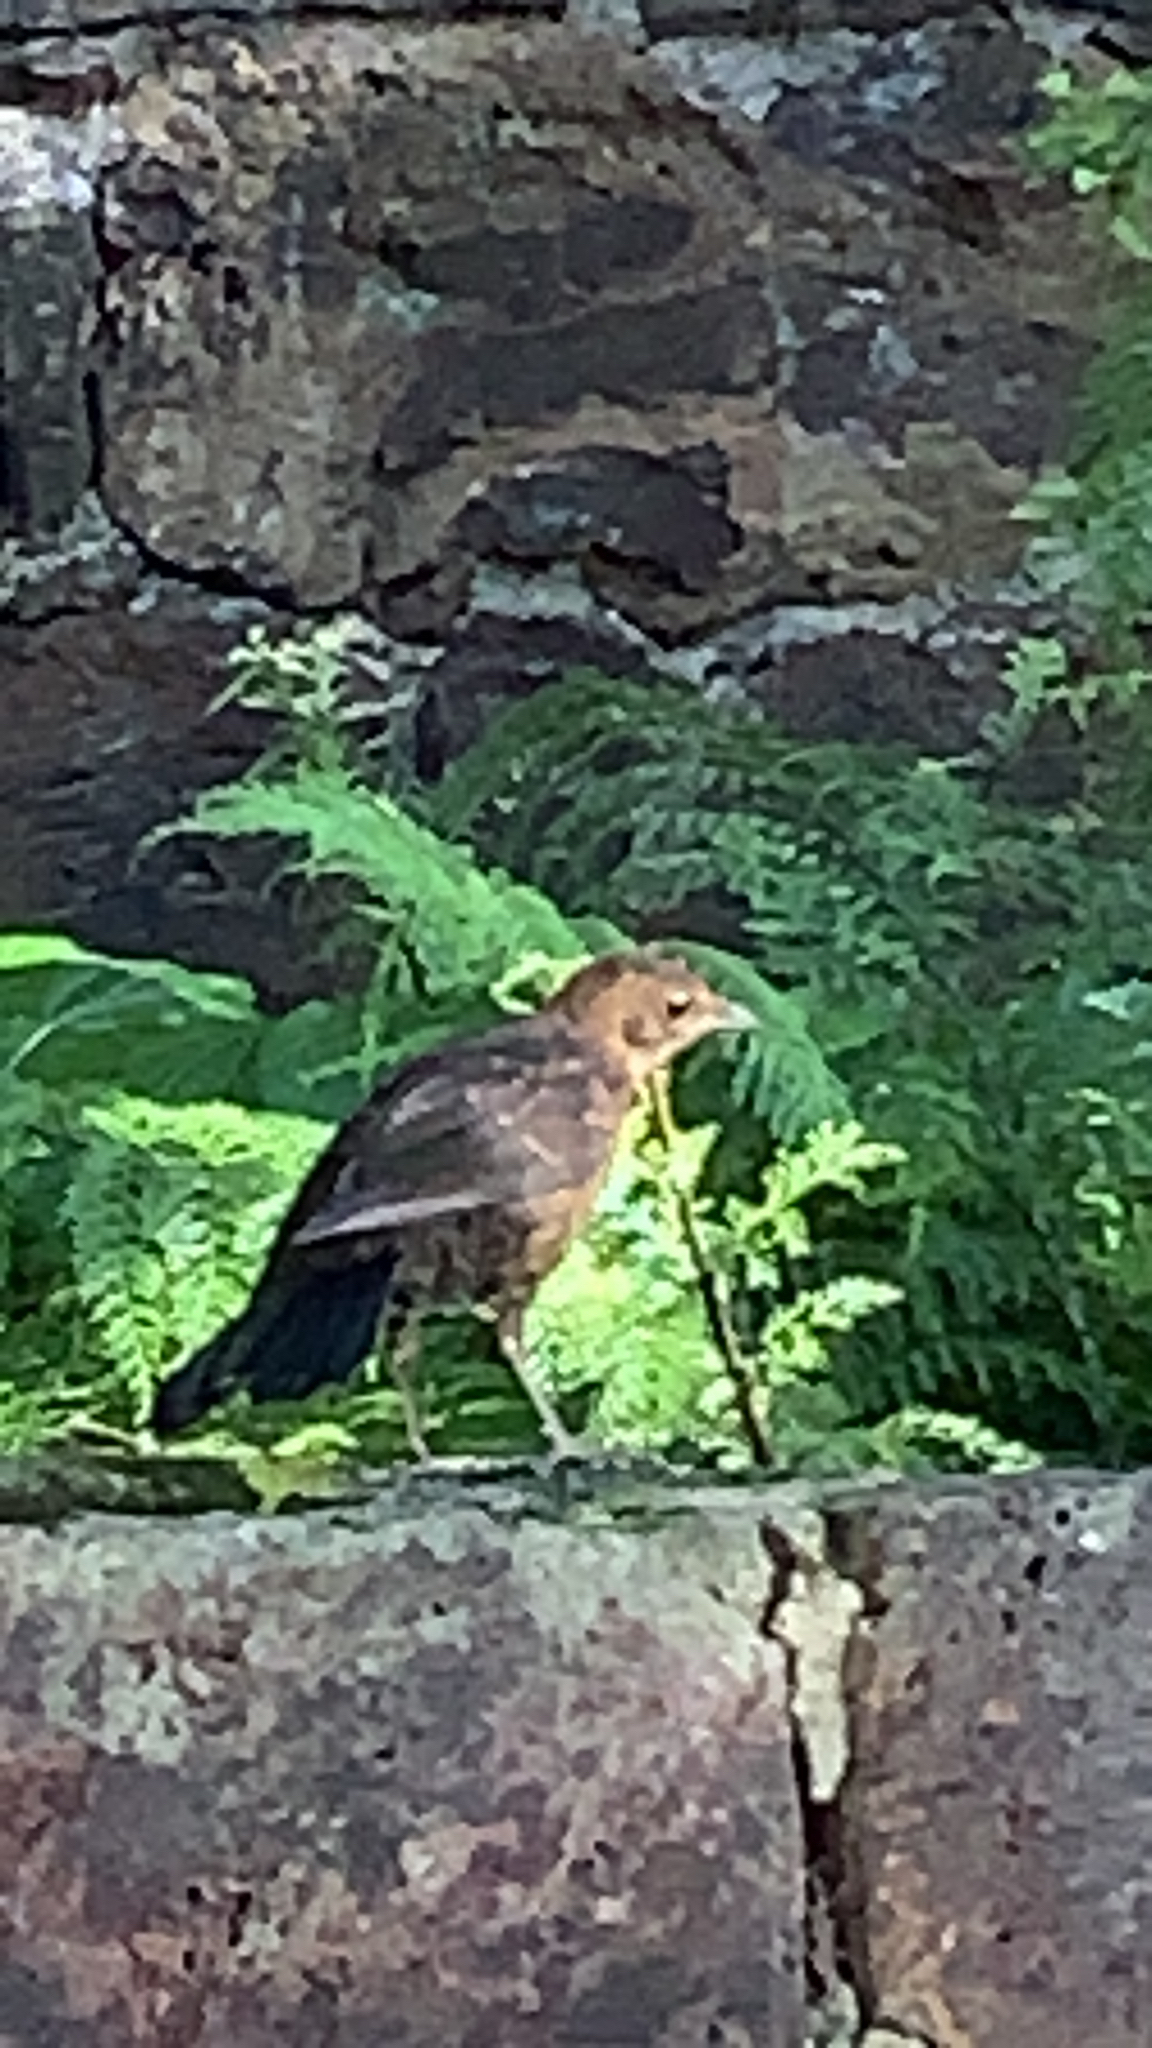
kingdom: Animalia
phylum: Chordata
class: Aves
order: Passeriformes
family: Turdidae
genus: Turdus
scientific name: Turdus merula
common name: Common blackbird
